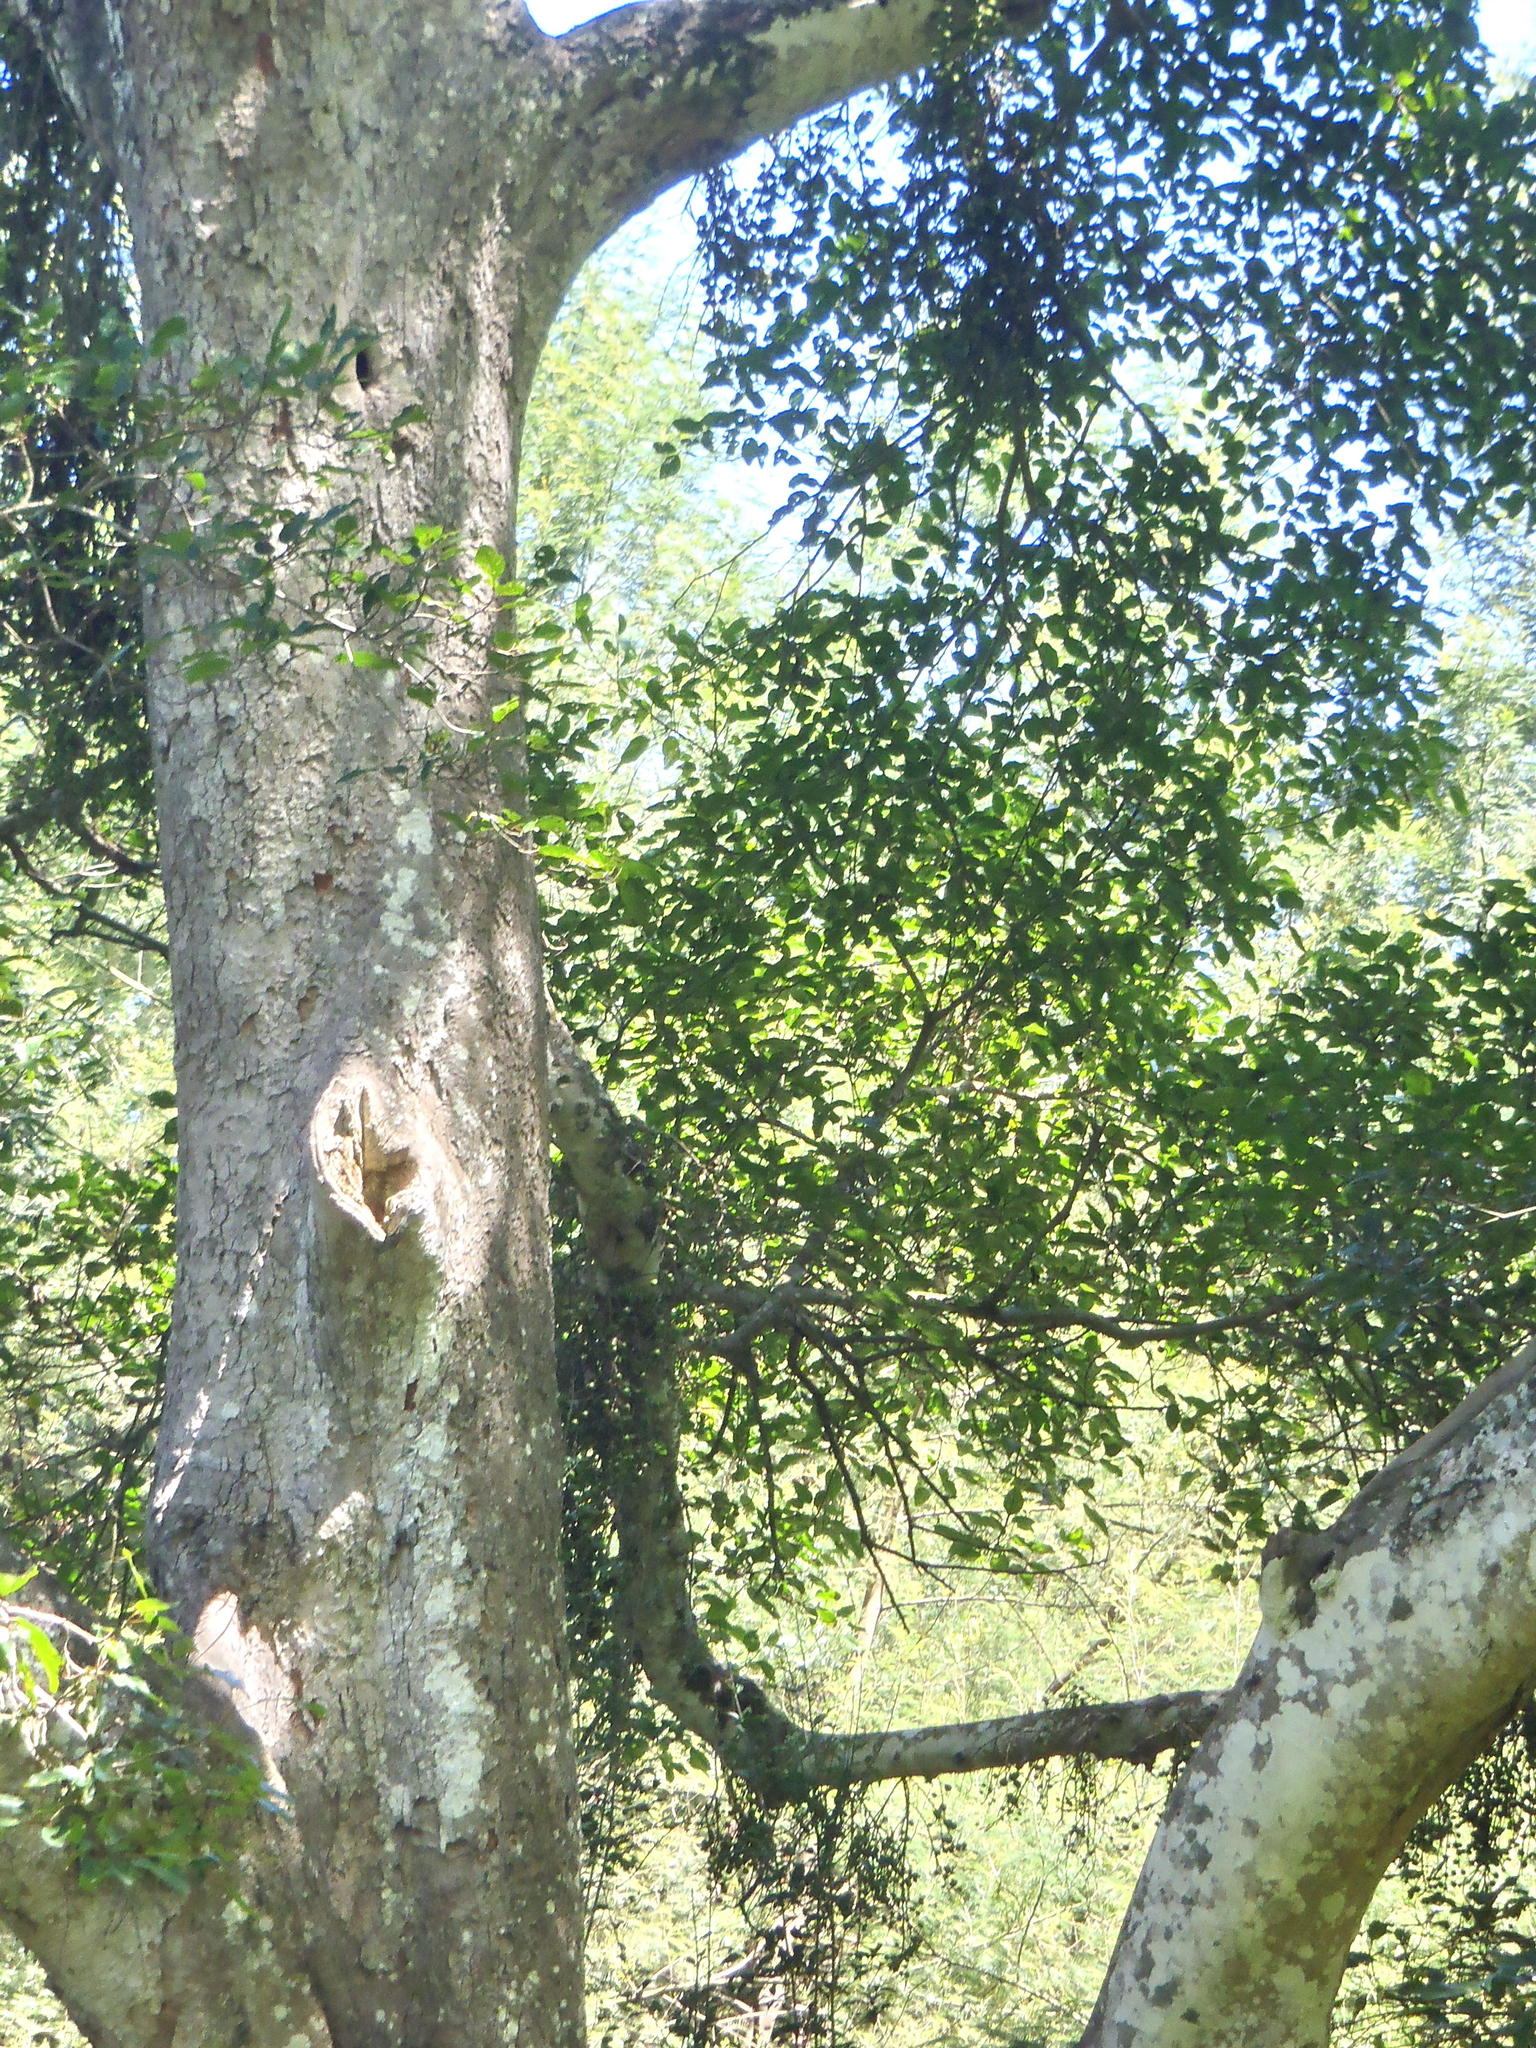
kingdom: Plantae
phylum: Tracheophyta
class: Magnoliopsida
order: Rosales
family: Moraceae
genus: Ficus
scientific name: Ficus sur
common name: Cape fig
